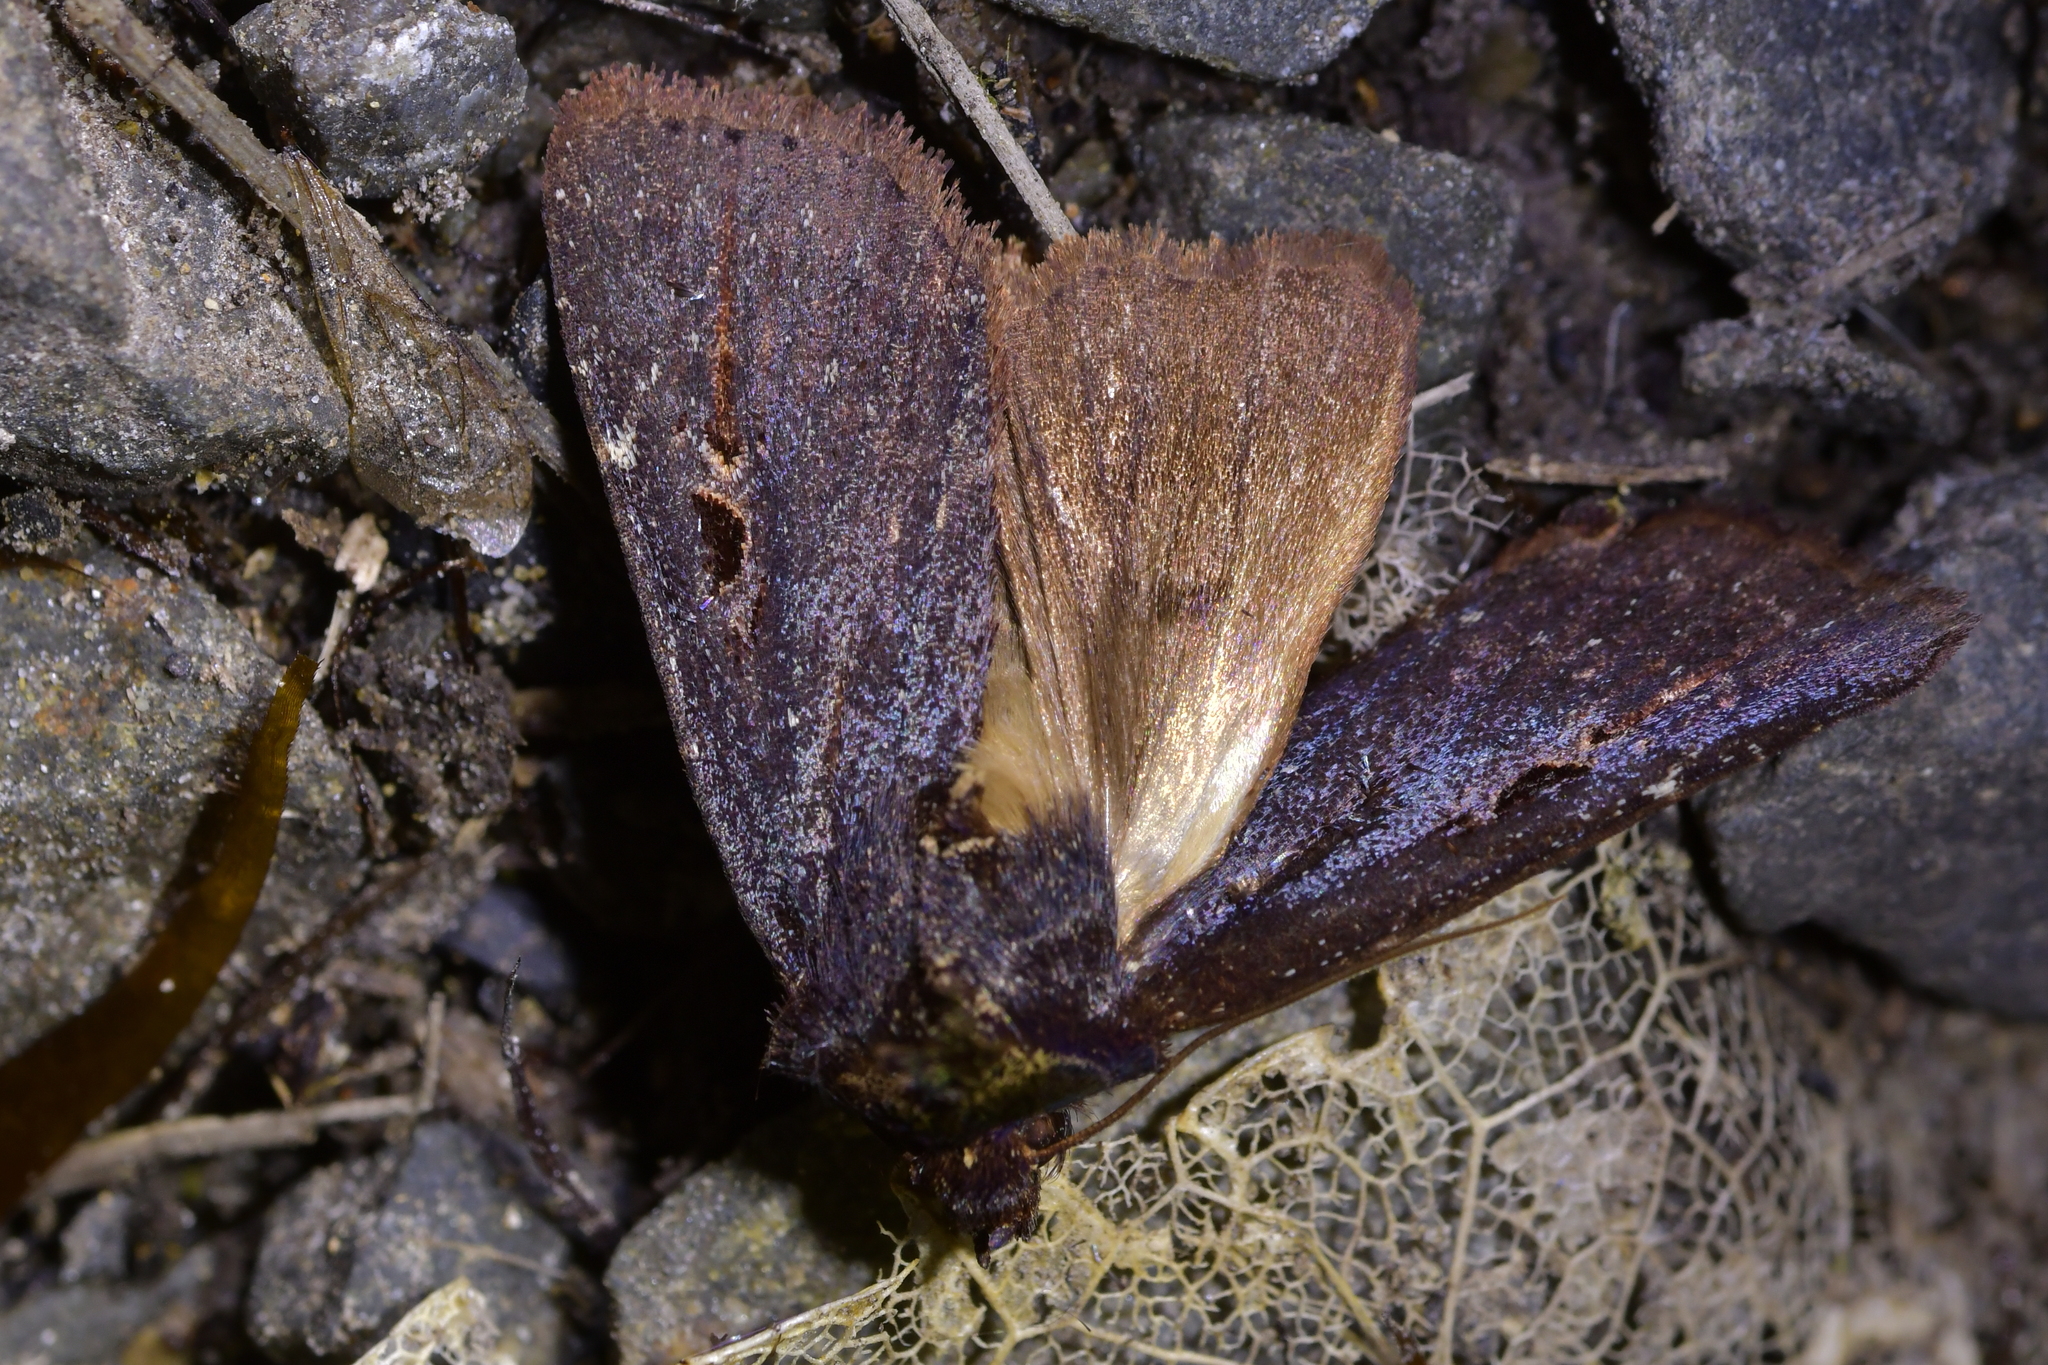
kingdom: Animalia
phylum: Arthropoda
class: Insecta
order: Lepidoptera
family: Noctuidae
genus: Austramathes
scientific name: Austramathes purpurea
